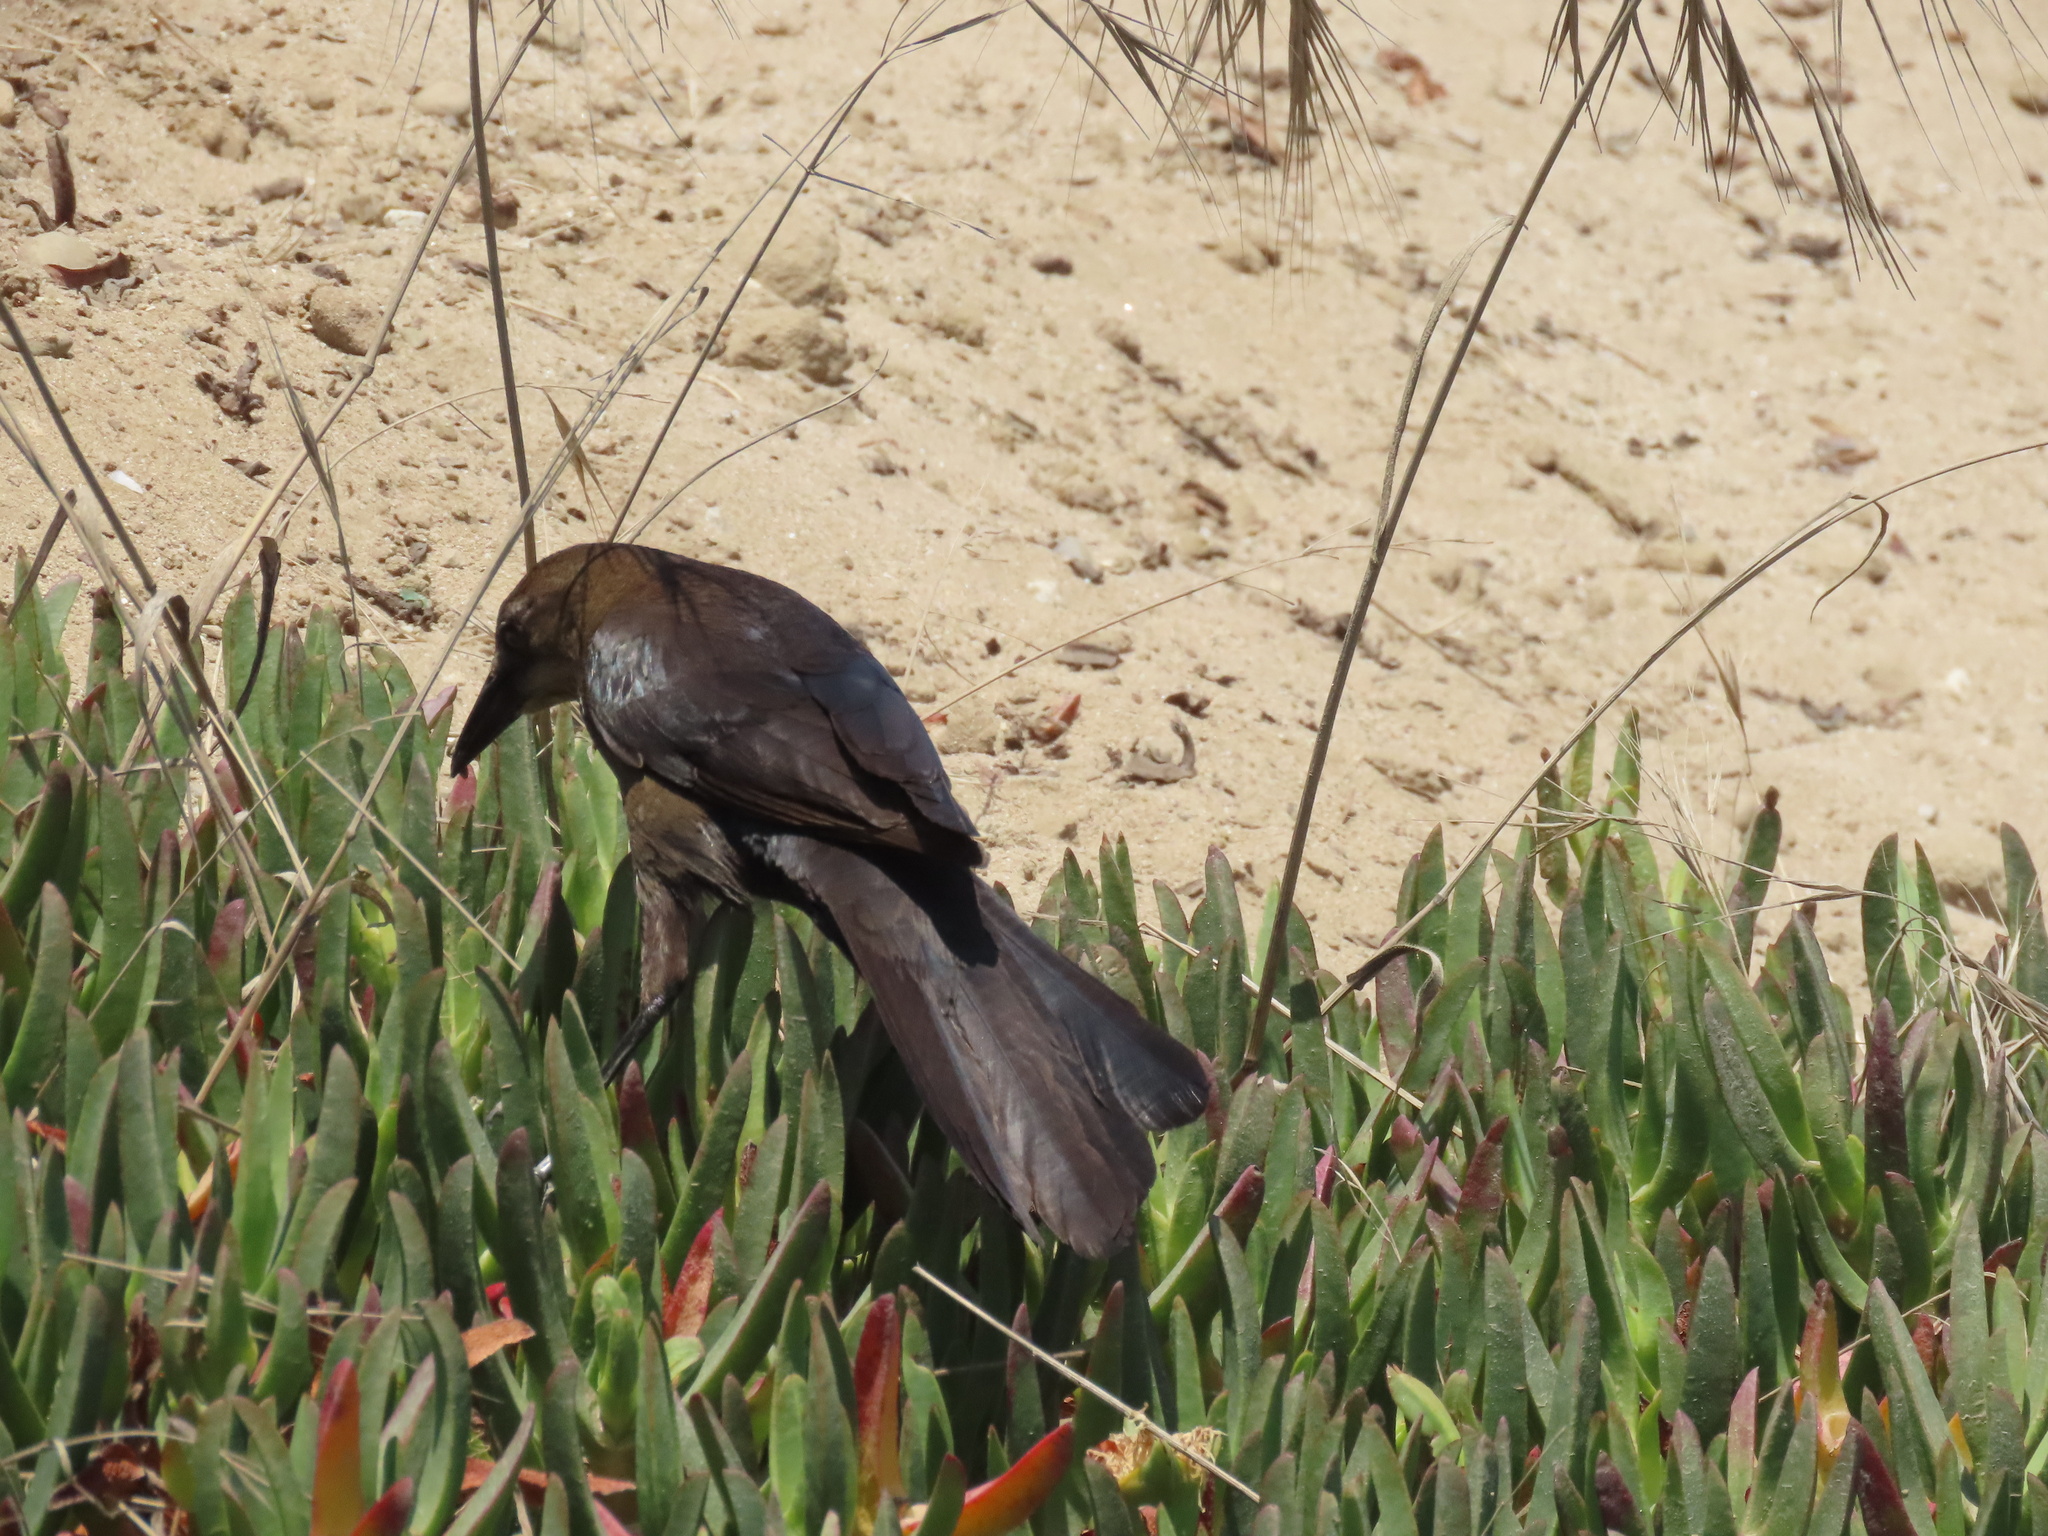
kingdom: Animalia
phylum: Chordata
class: Aves
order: Passeriformes
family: Icteridae
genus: Quiscalus
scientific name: Quiscalus mexicanus
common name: Great-tailed grackle
